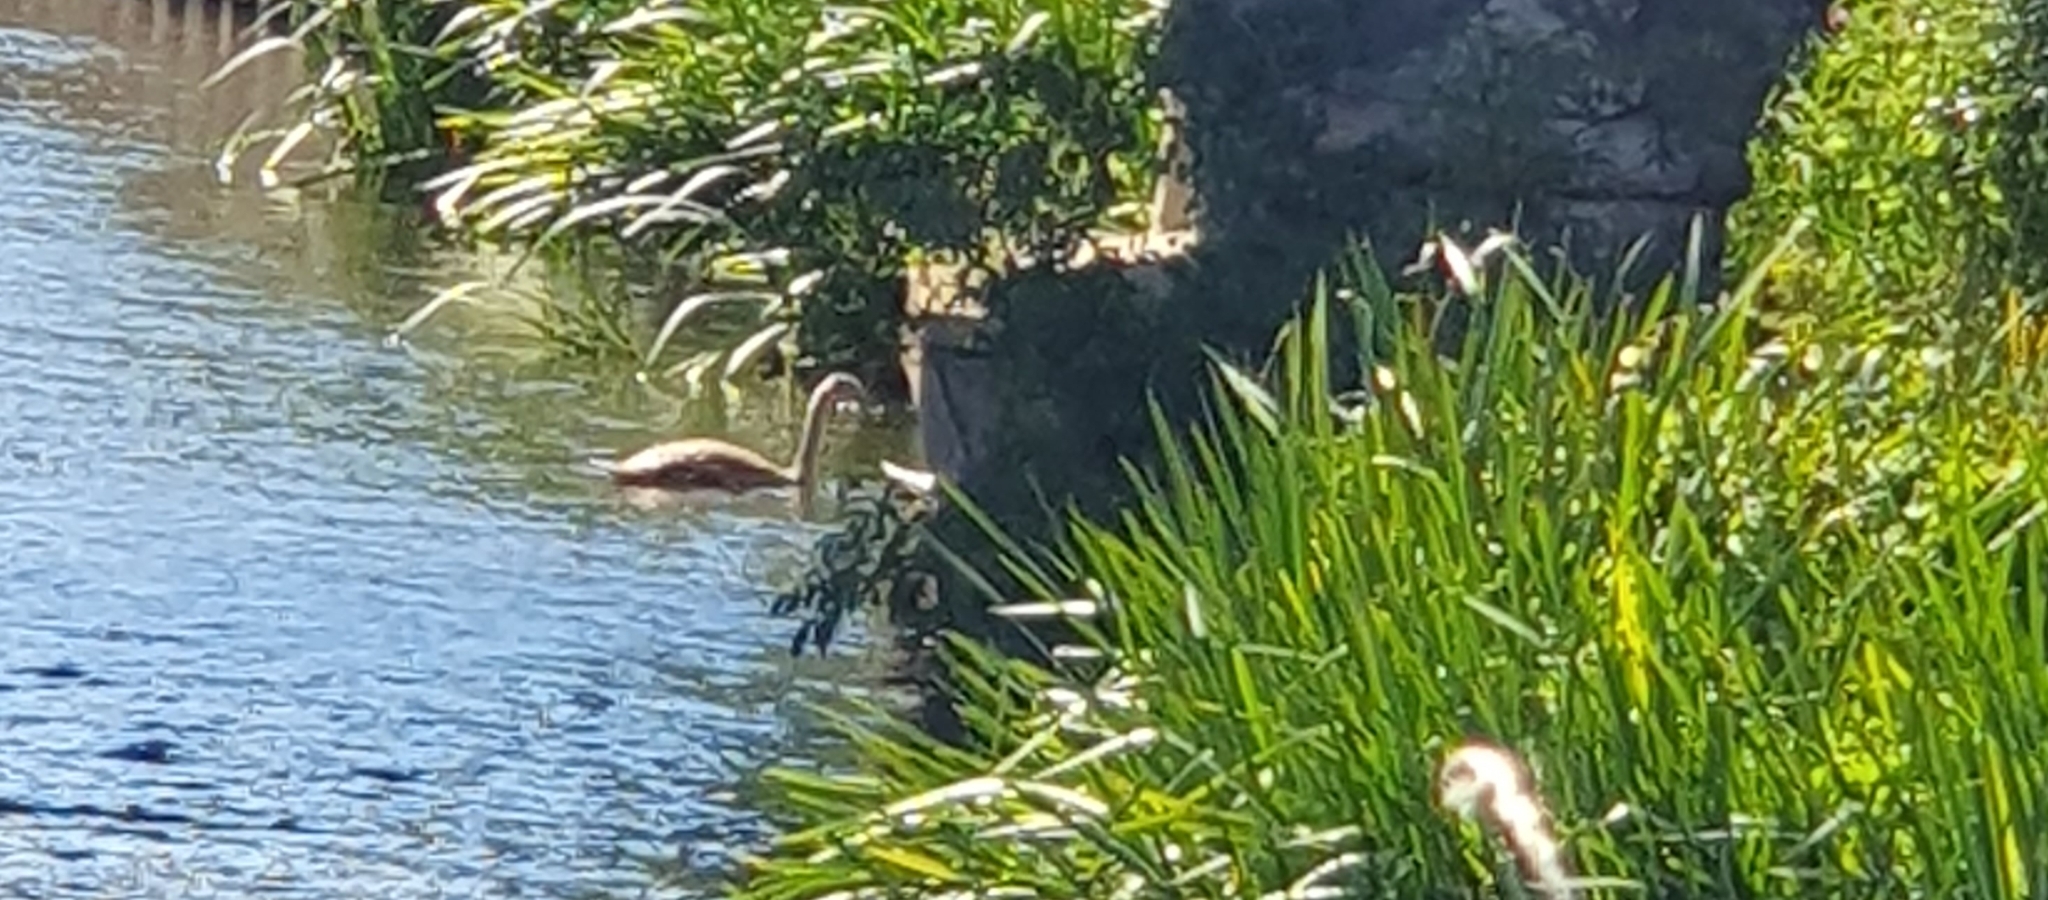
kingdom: Animalia
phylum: Chordata
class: Aves
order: Anseriformes
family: Anatidae
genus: Cygnus
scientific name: Cygnus olor
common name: Mute swan
